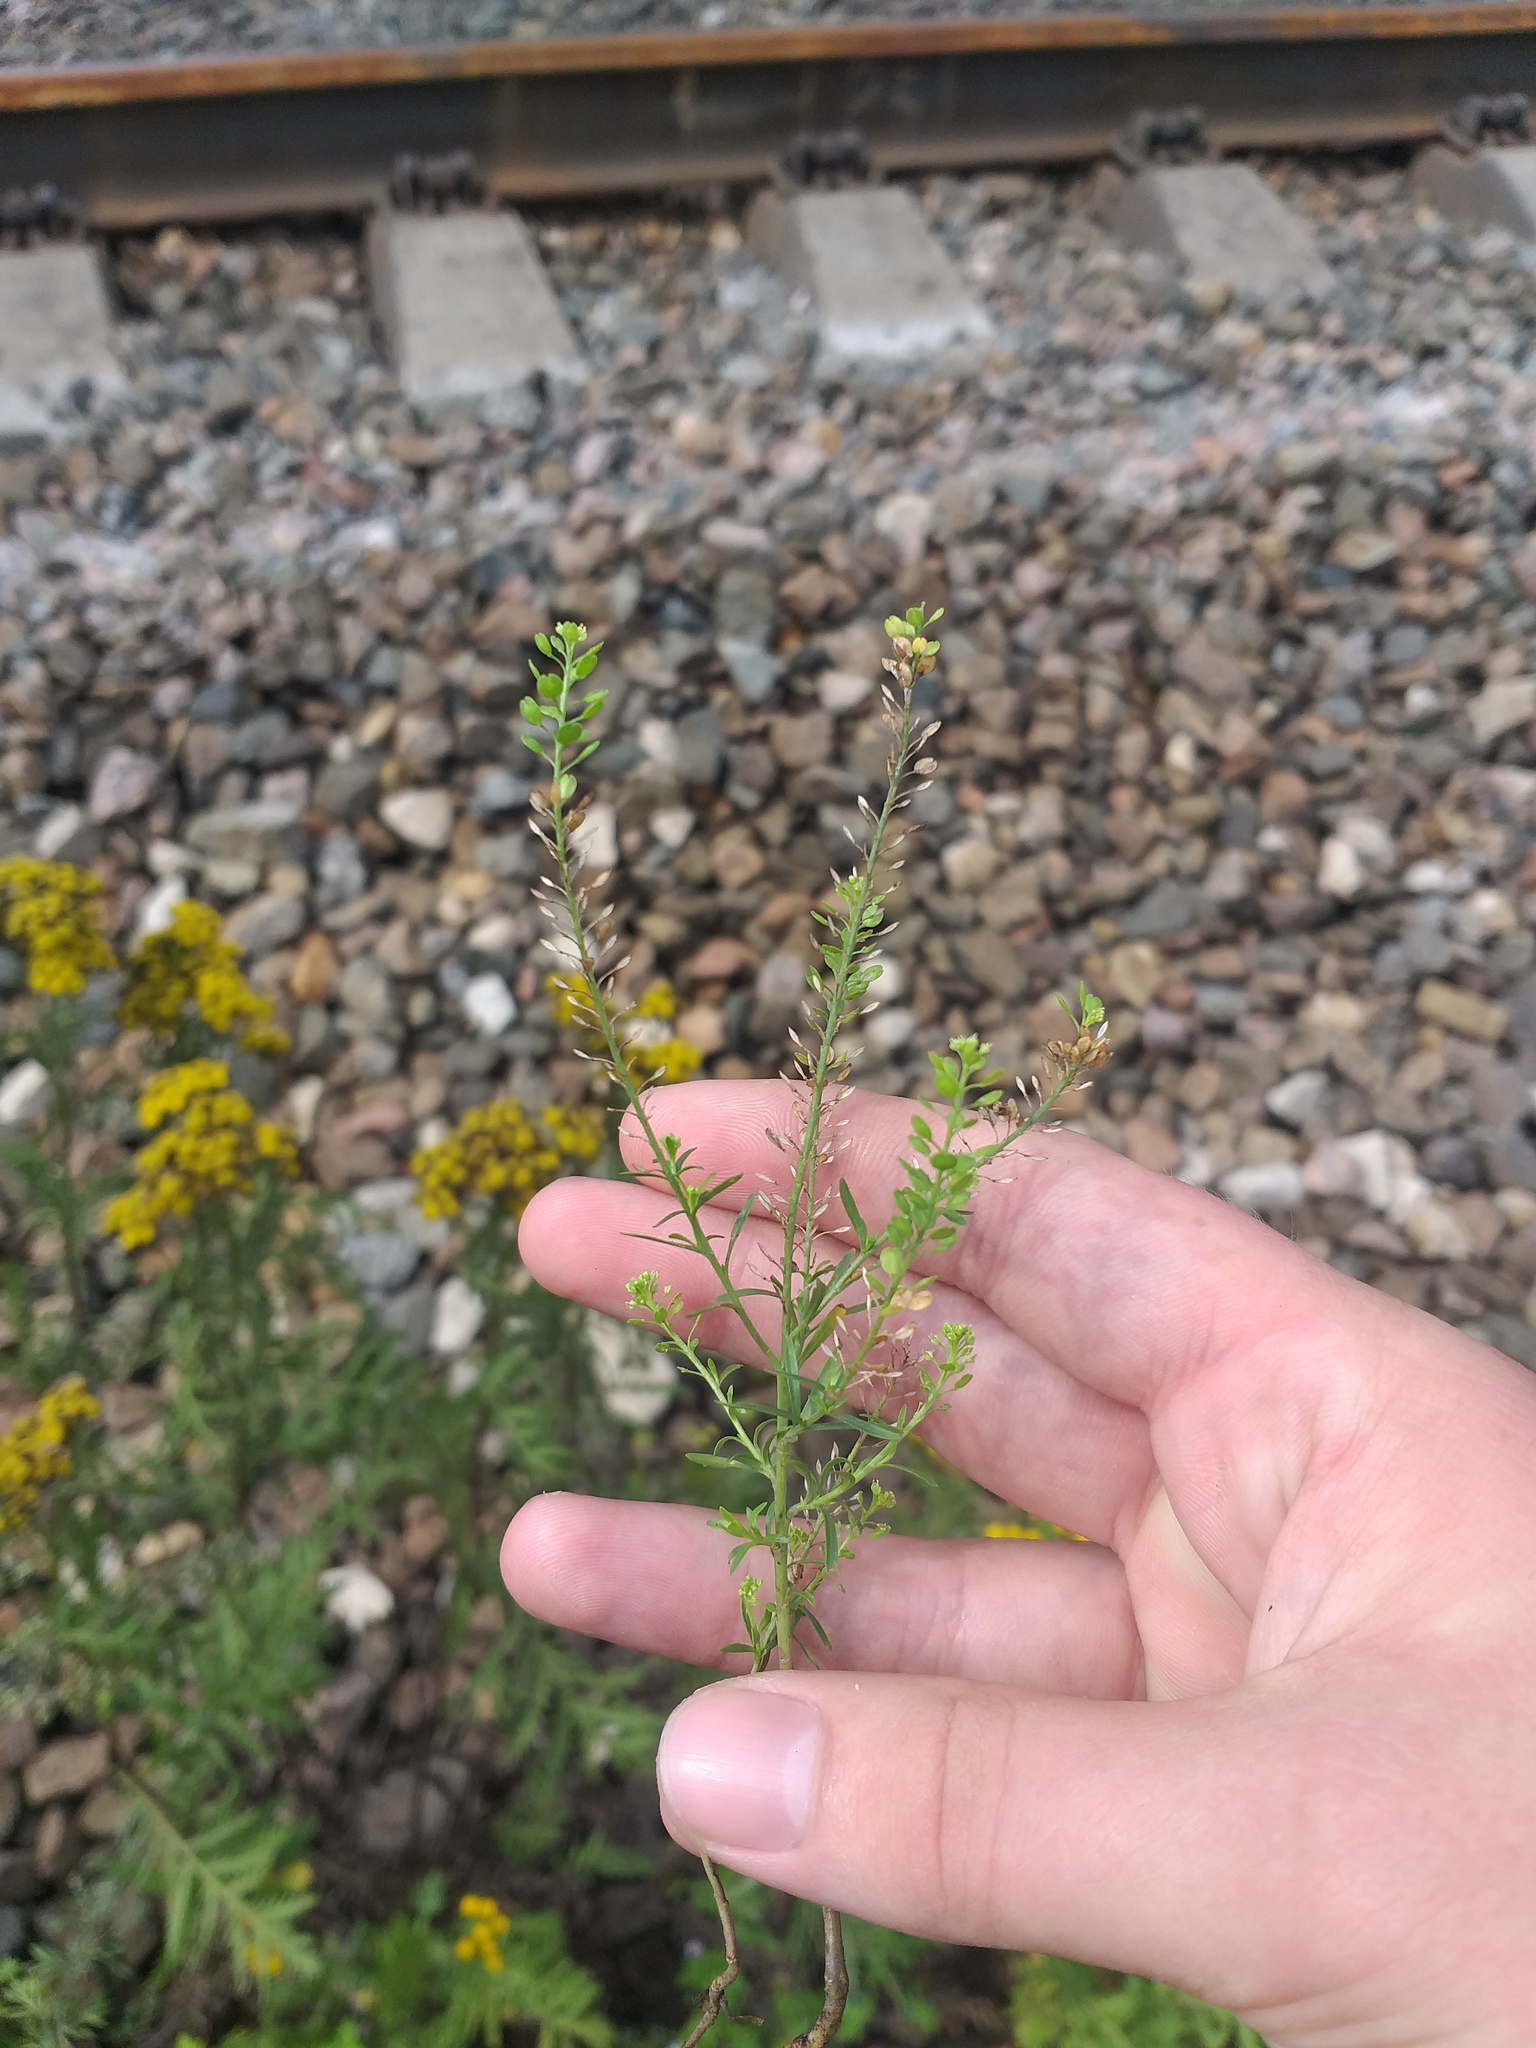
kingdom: Plantae
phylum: Tracheophyta
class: Magnoliopsida
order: Brassicales
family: Brassicaceae
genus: Lepidium
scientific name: Lepidium densiflorum
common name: Miner's pepperwort
